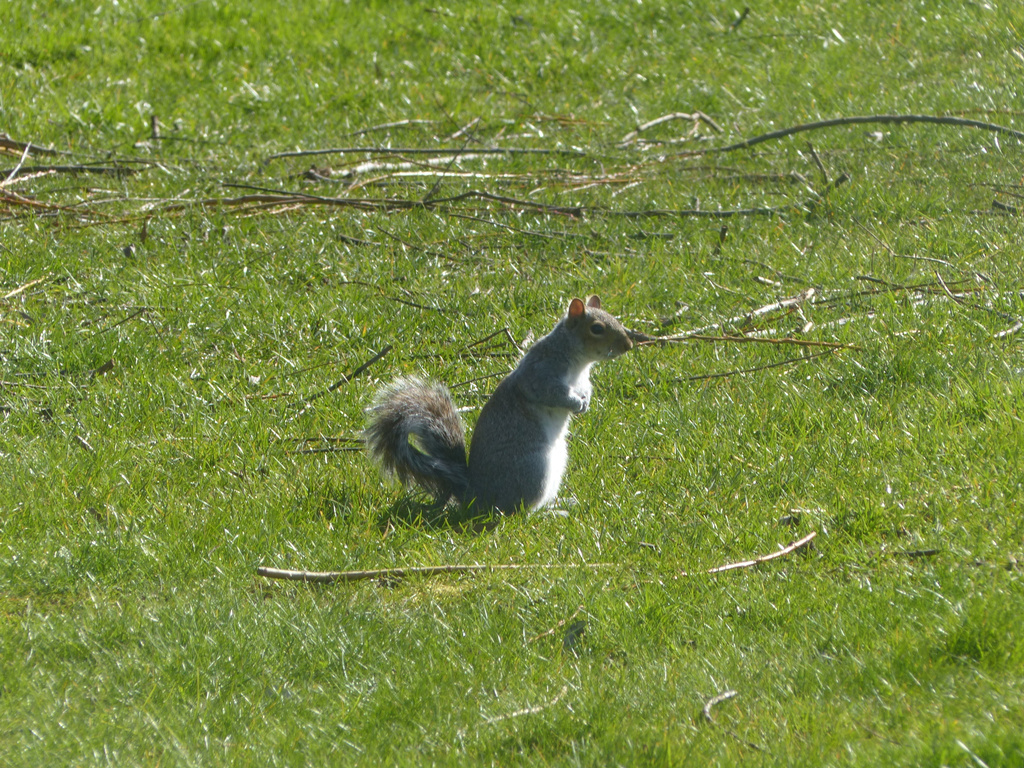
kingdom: Animalia
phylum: Chordata
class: Mammalia
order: Rodentia
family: Sciuridae
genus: Sciurus
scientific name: Sciurus carolinensis
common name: Eastern gray squirrel
